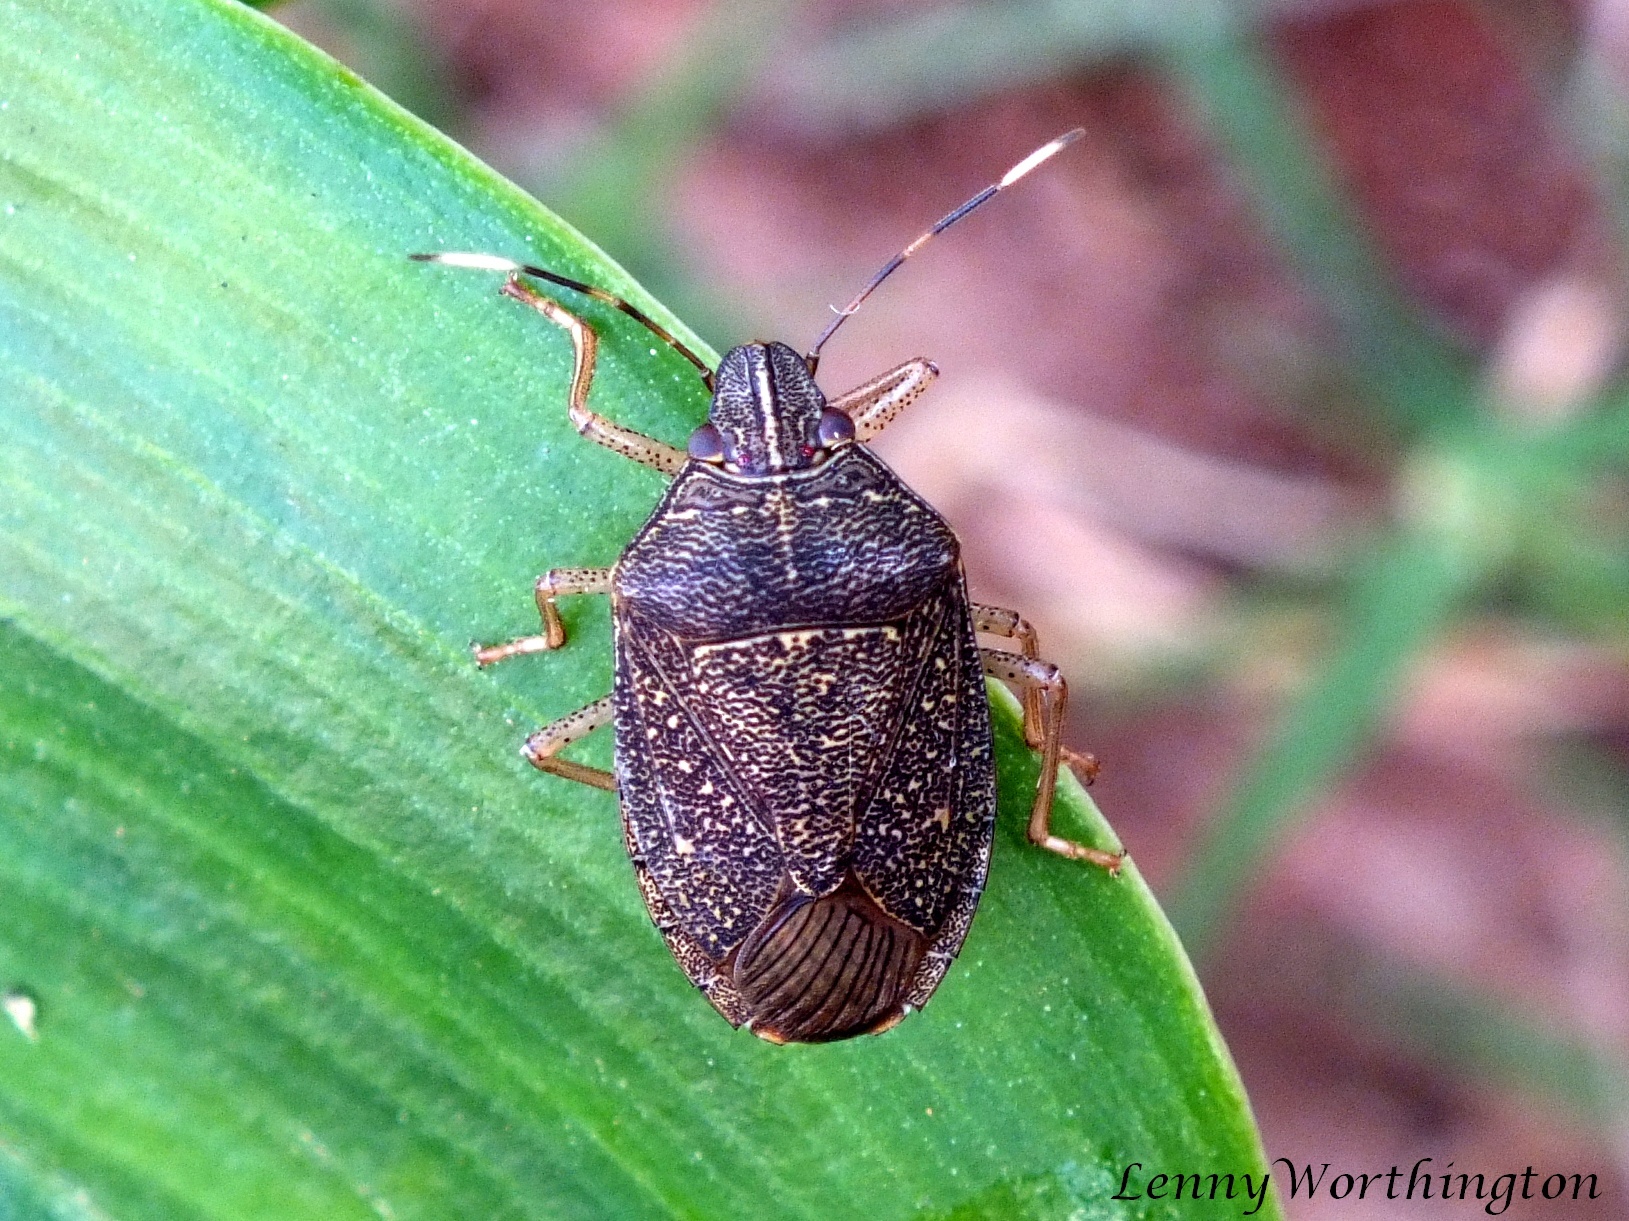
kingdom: Animalia
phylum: Arthropoda
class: Insecta
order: Hemiptera
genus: Critheus
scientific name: Critheus
